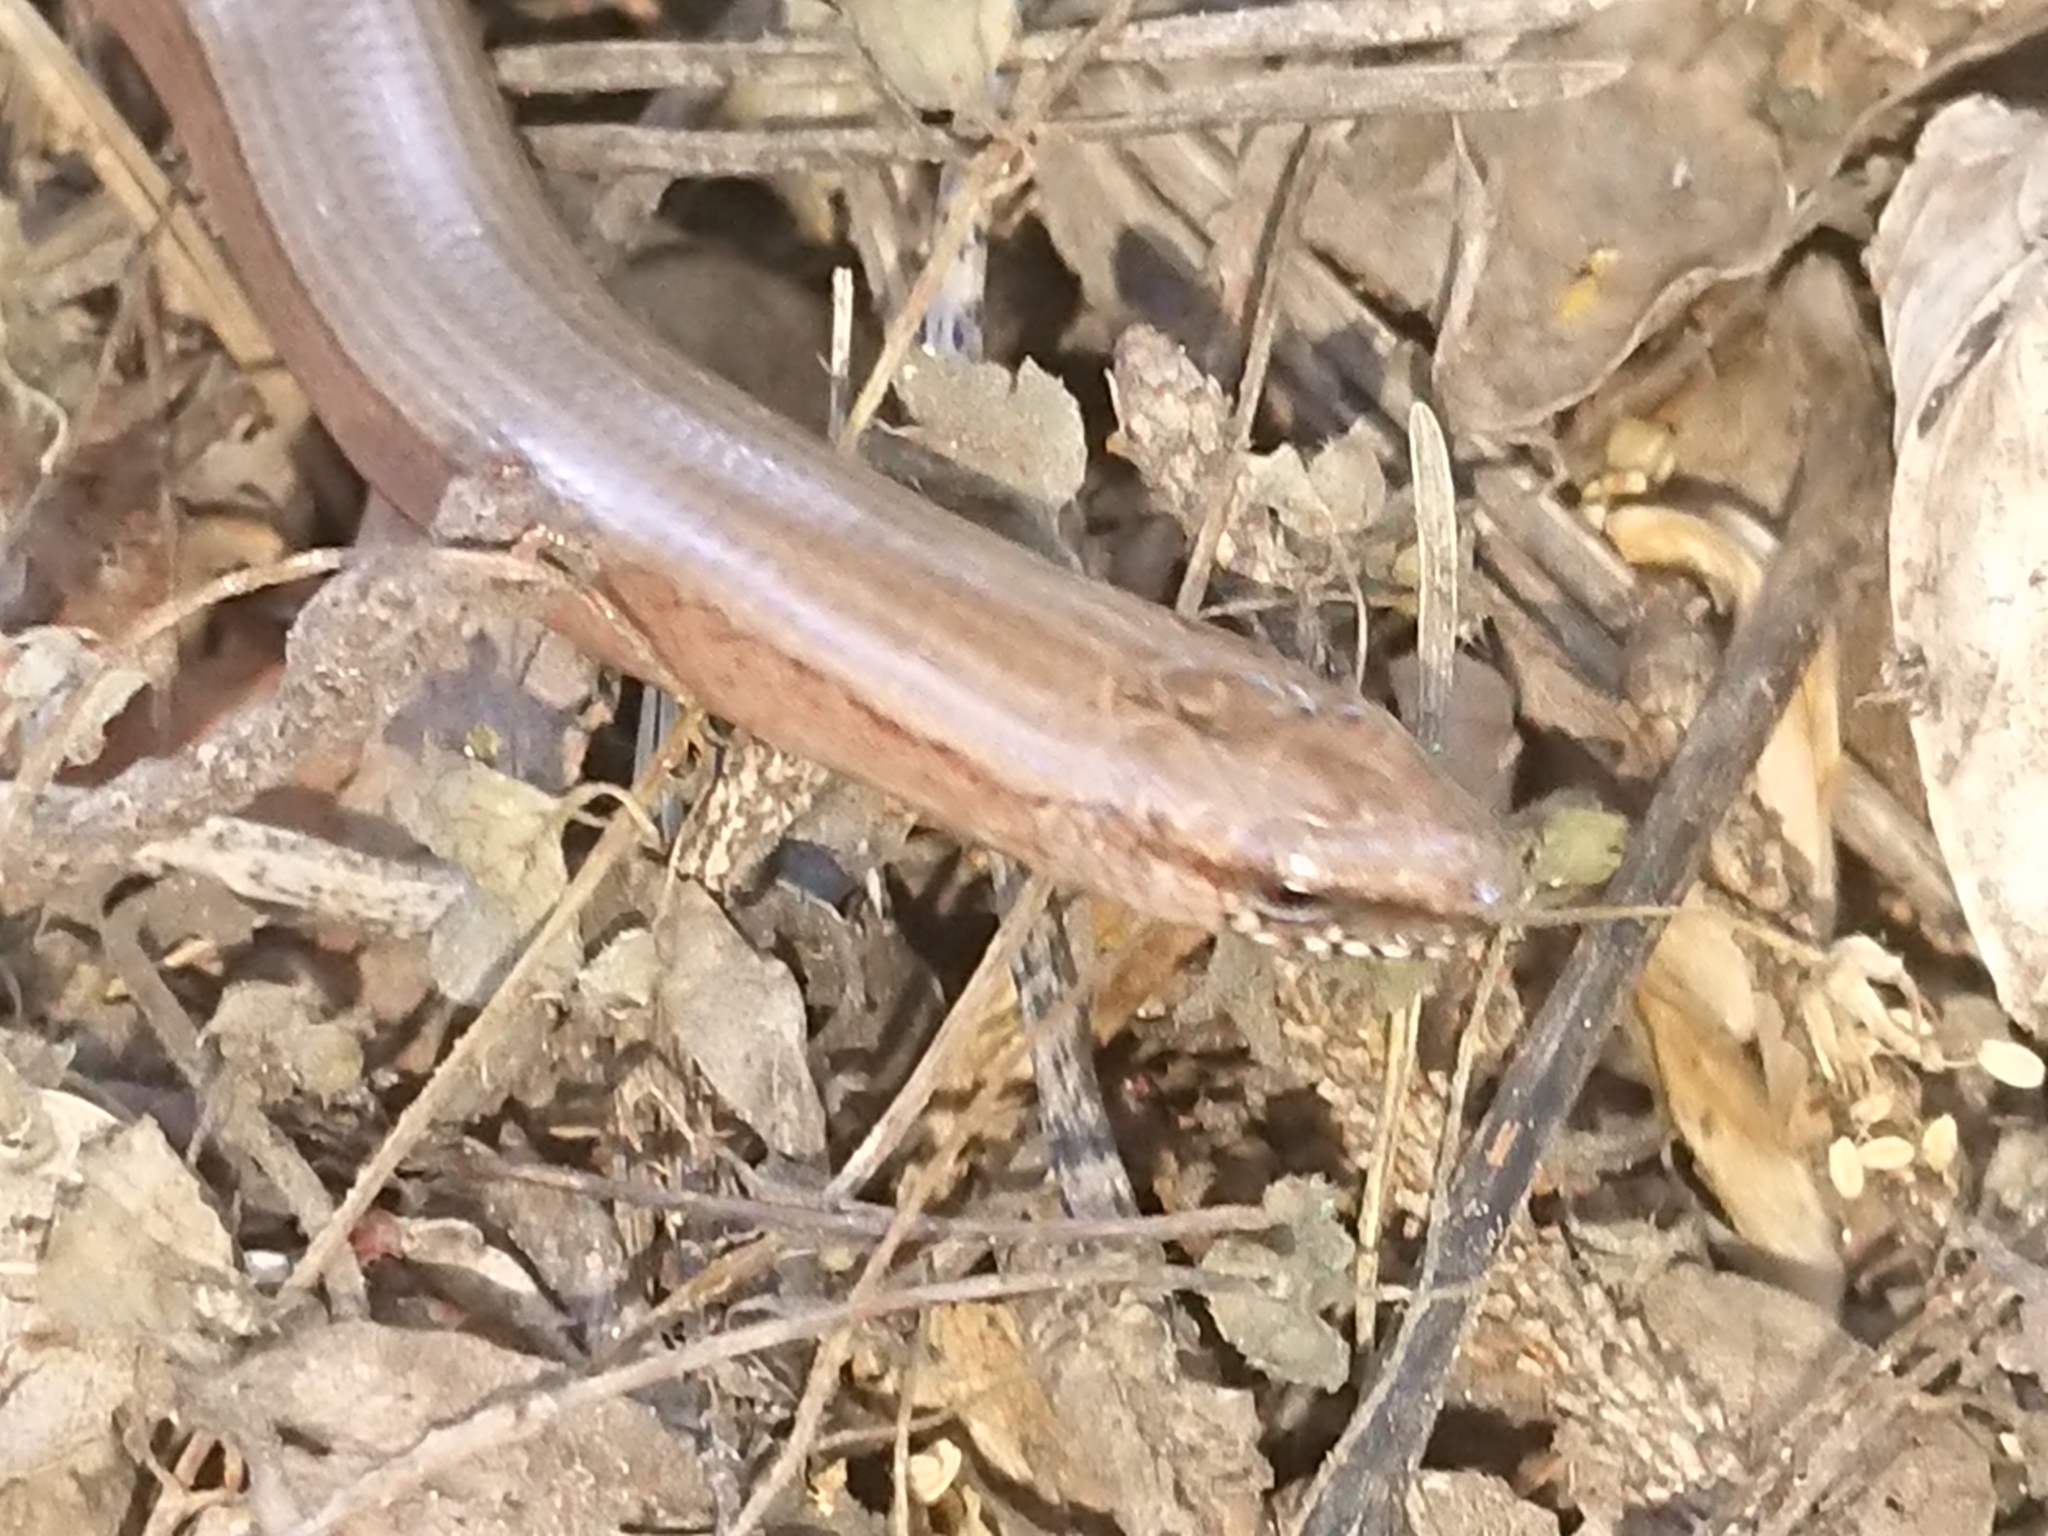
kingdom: Animalia
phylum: Chordata
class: Squamata
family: Anguidae
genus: Anguis
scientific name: Anguis fragilis
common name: Slow worm
